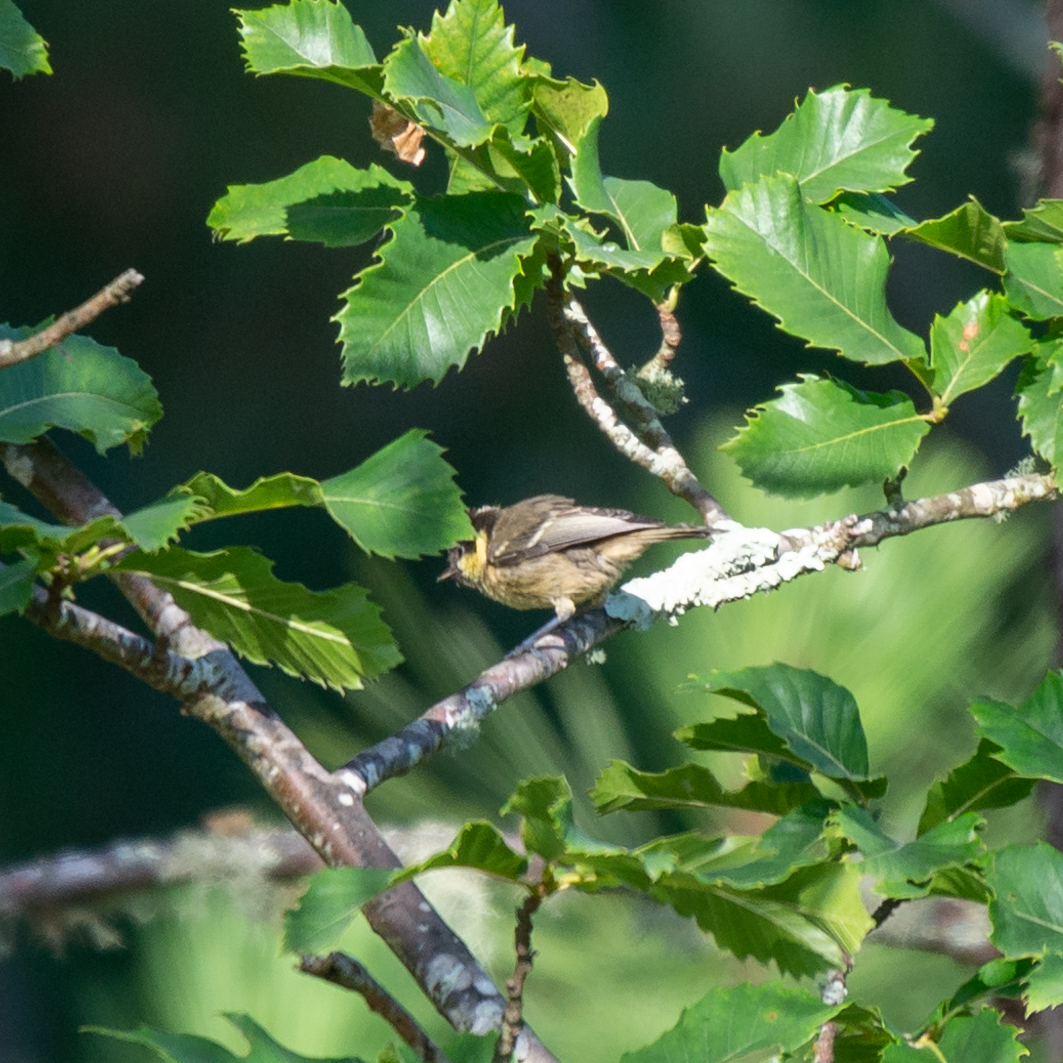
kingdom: Animalia
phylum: Chordata
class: Aves
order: Passeriformes
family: Paridae
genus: Periparus
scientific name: Periparus ater
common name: Coal tit
